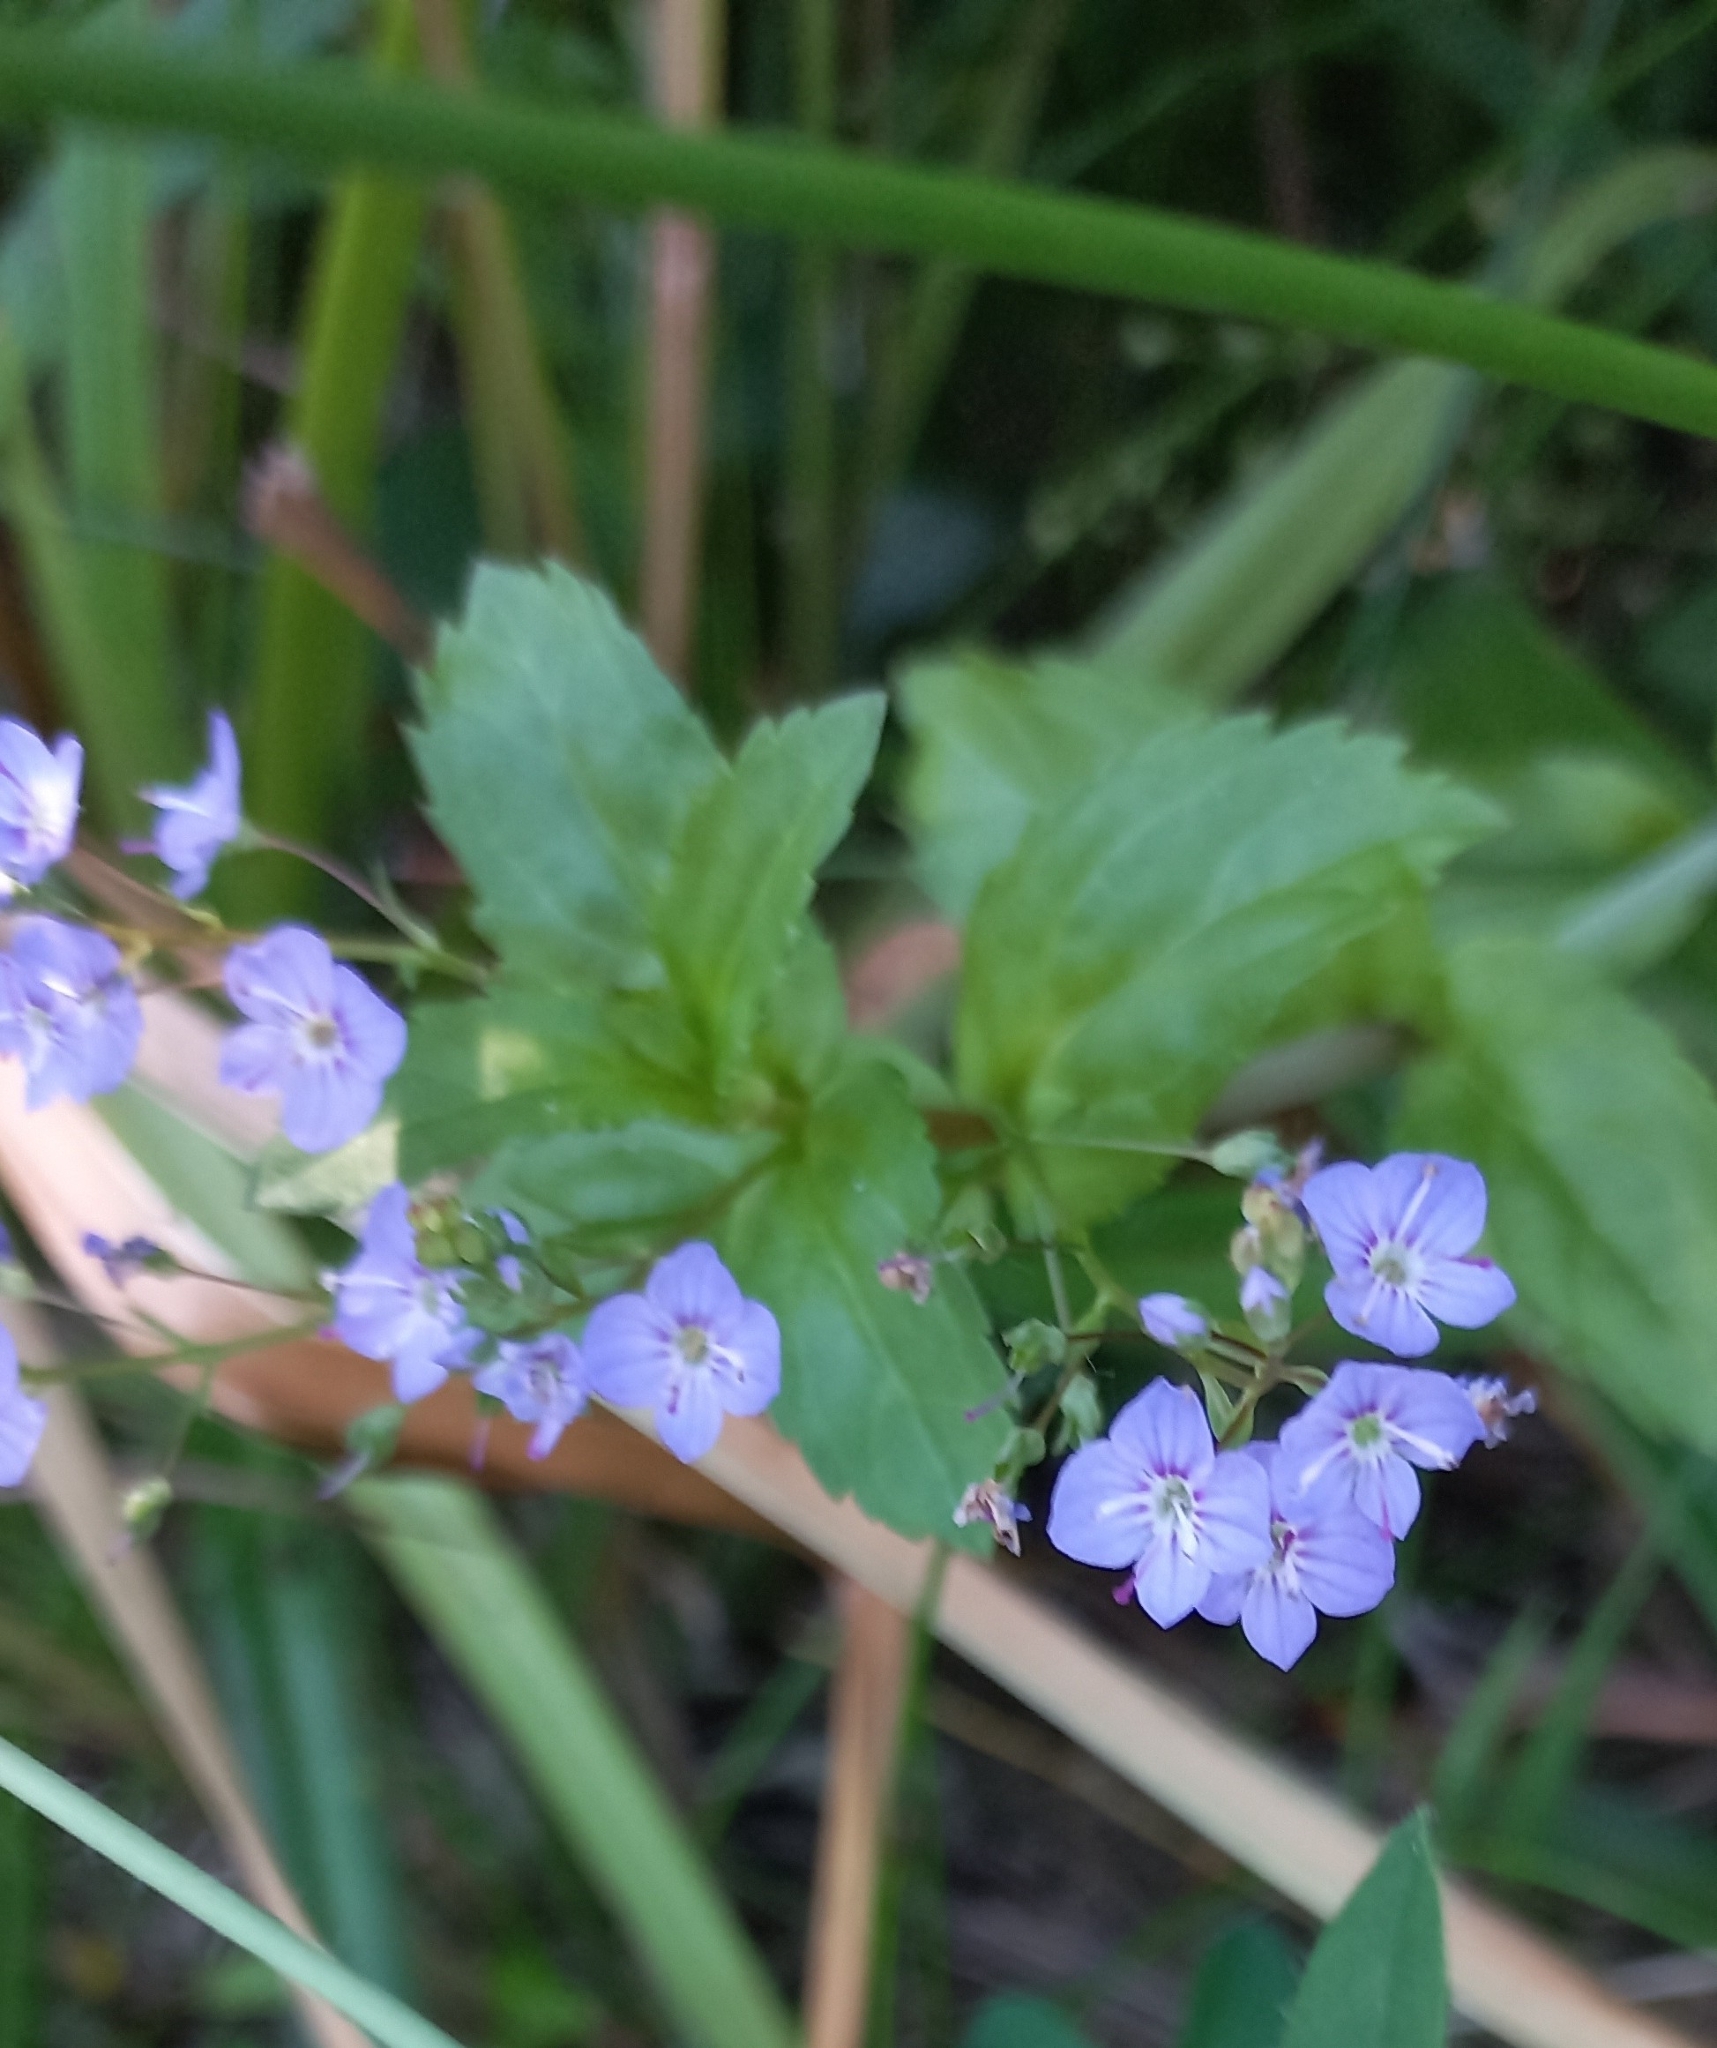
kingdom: Plantae
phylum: Tracheophyta
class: Magnoliopsida
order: Lamiales
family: Plantaginaceae
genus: Veronica
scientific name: Veronica americana
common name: American brooklime
